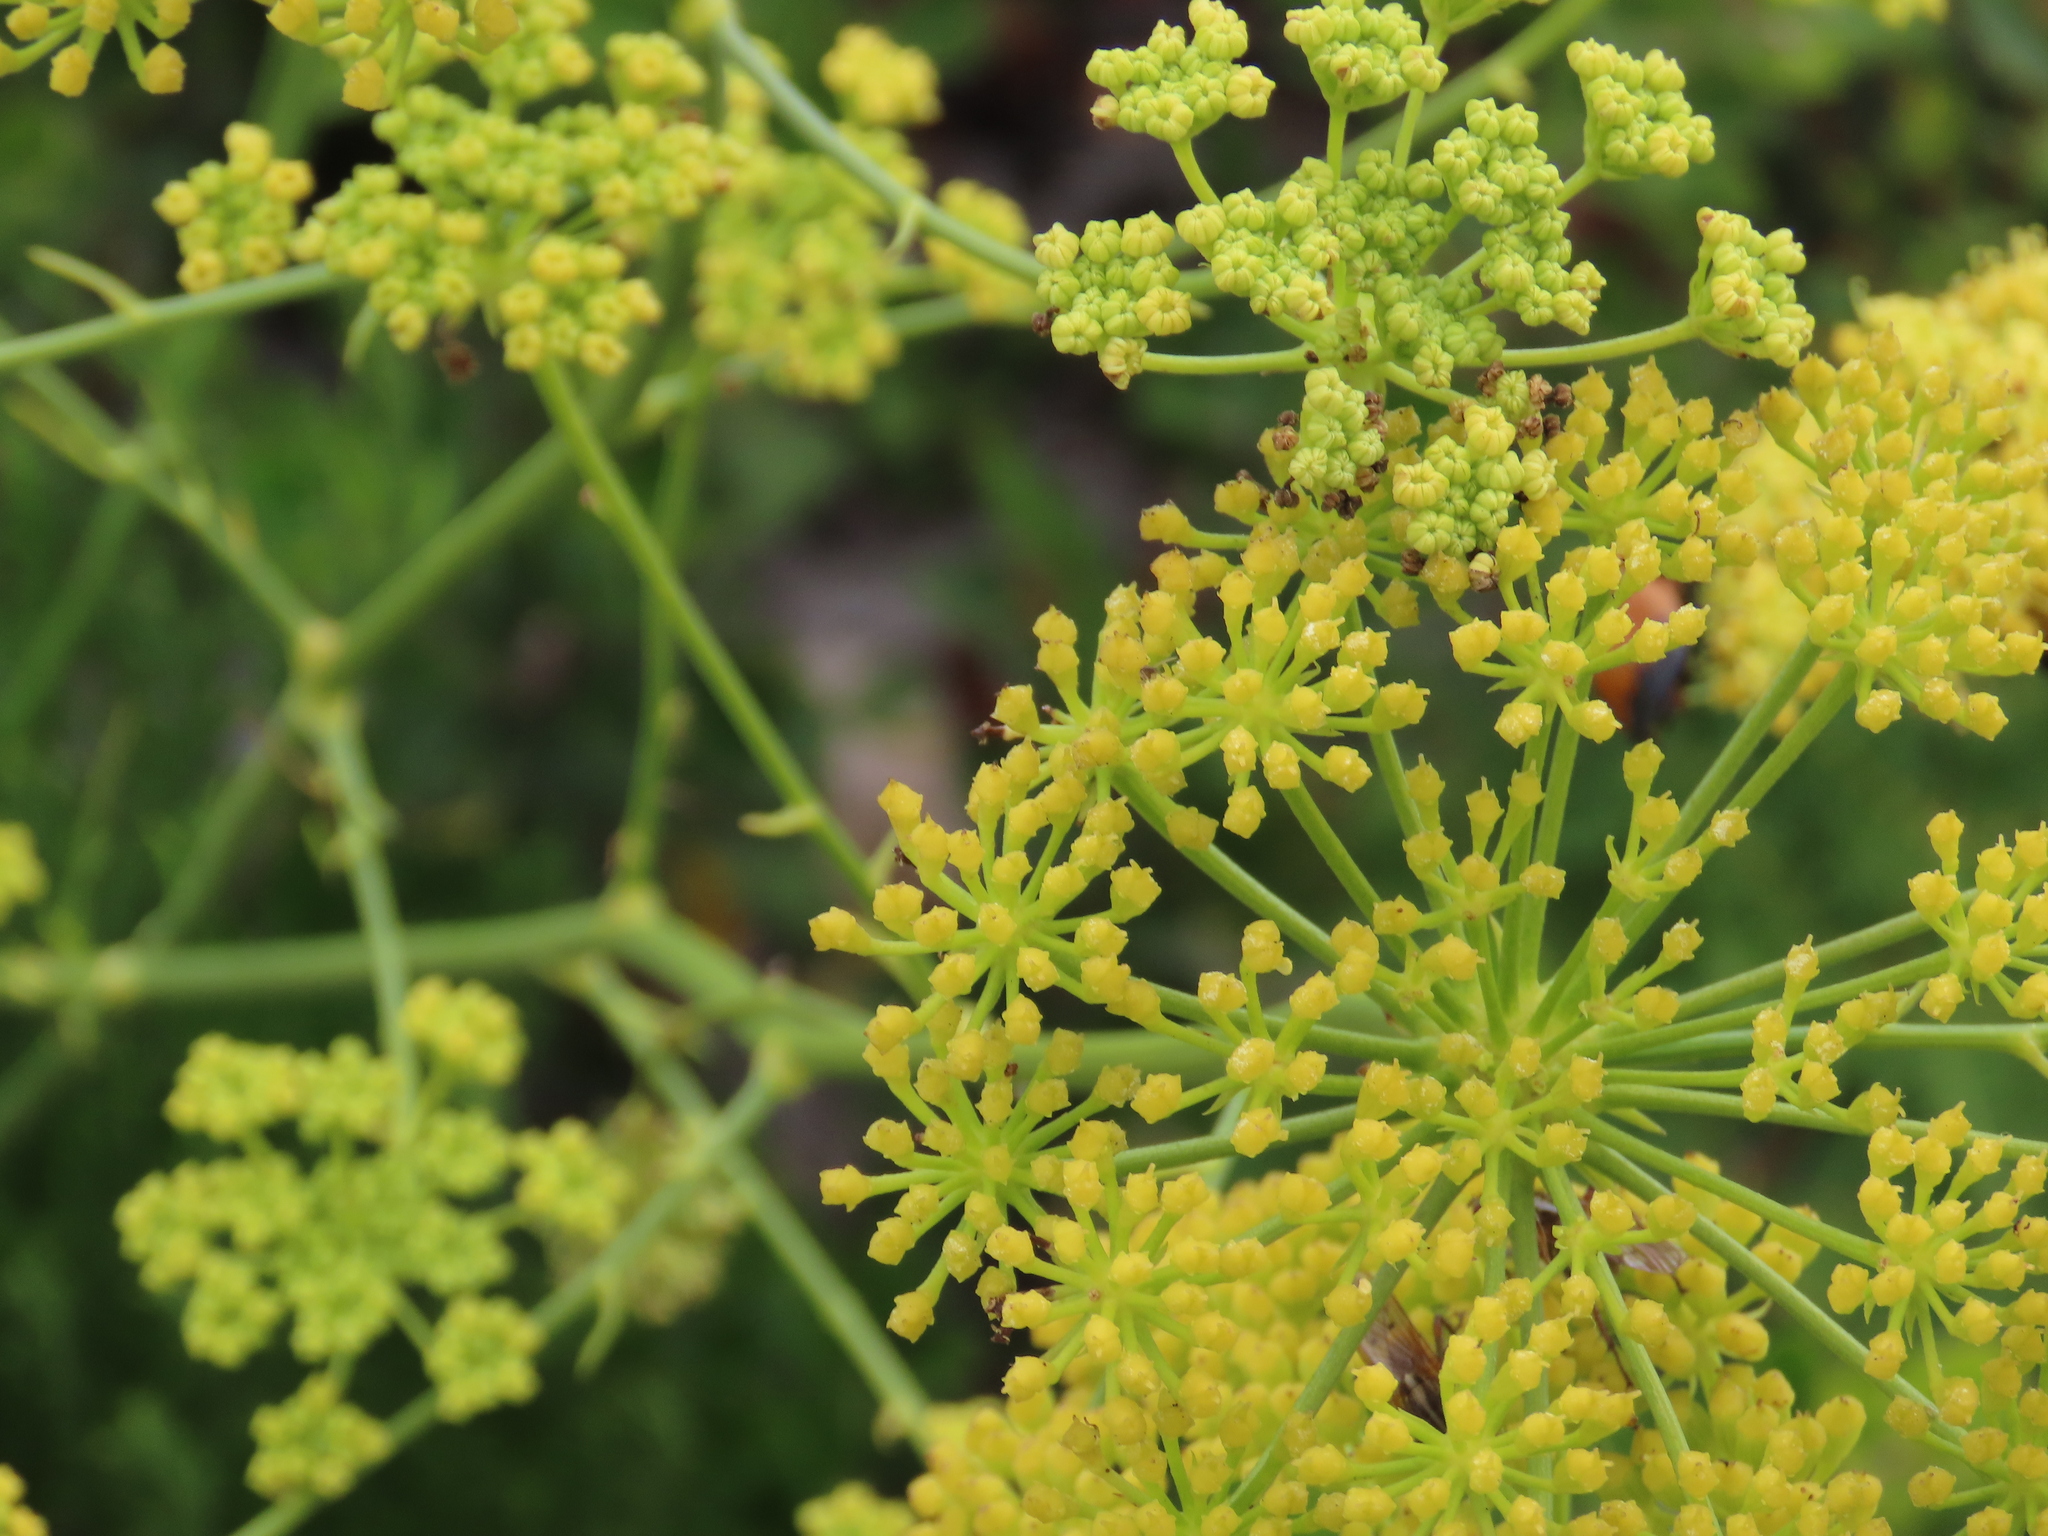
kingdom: Plantae
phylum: Tracheophyta
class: Magnoliopsida
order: Apiales
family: Apiaceae
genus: Glia
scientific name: Glia prolifera
